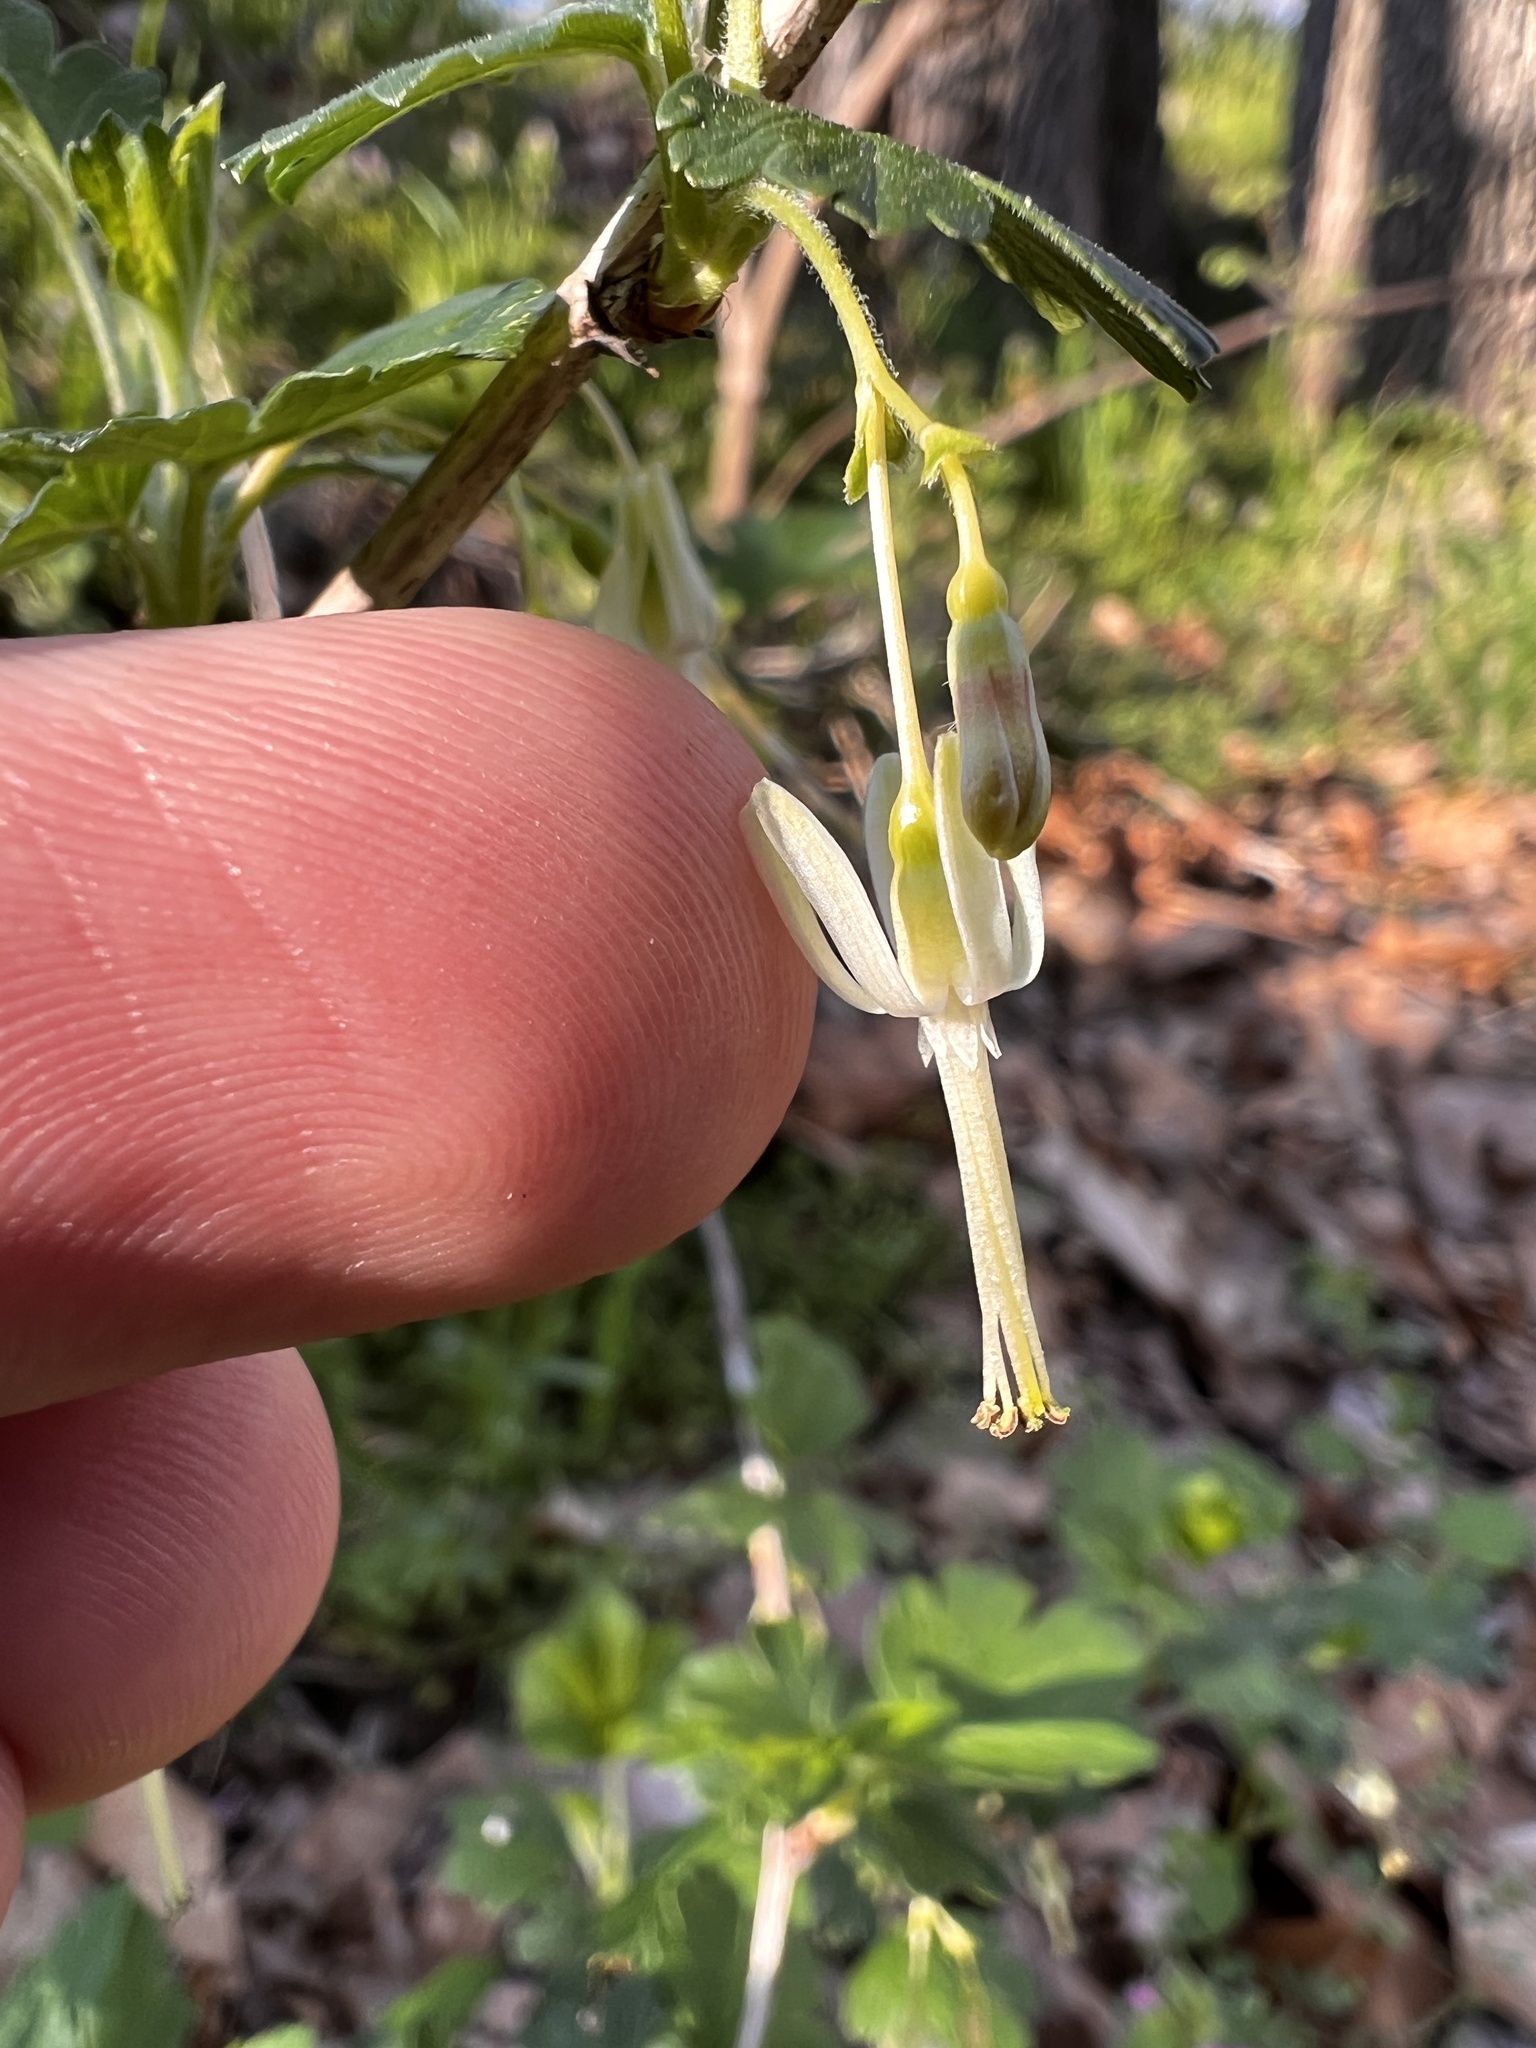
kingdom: Plantae
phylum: Tracheophyta
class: Magnoliopsida
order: Saxifragales
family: Grossulariaceae
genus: Ribes
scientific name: Ribes missouriense
